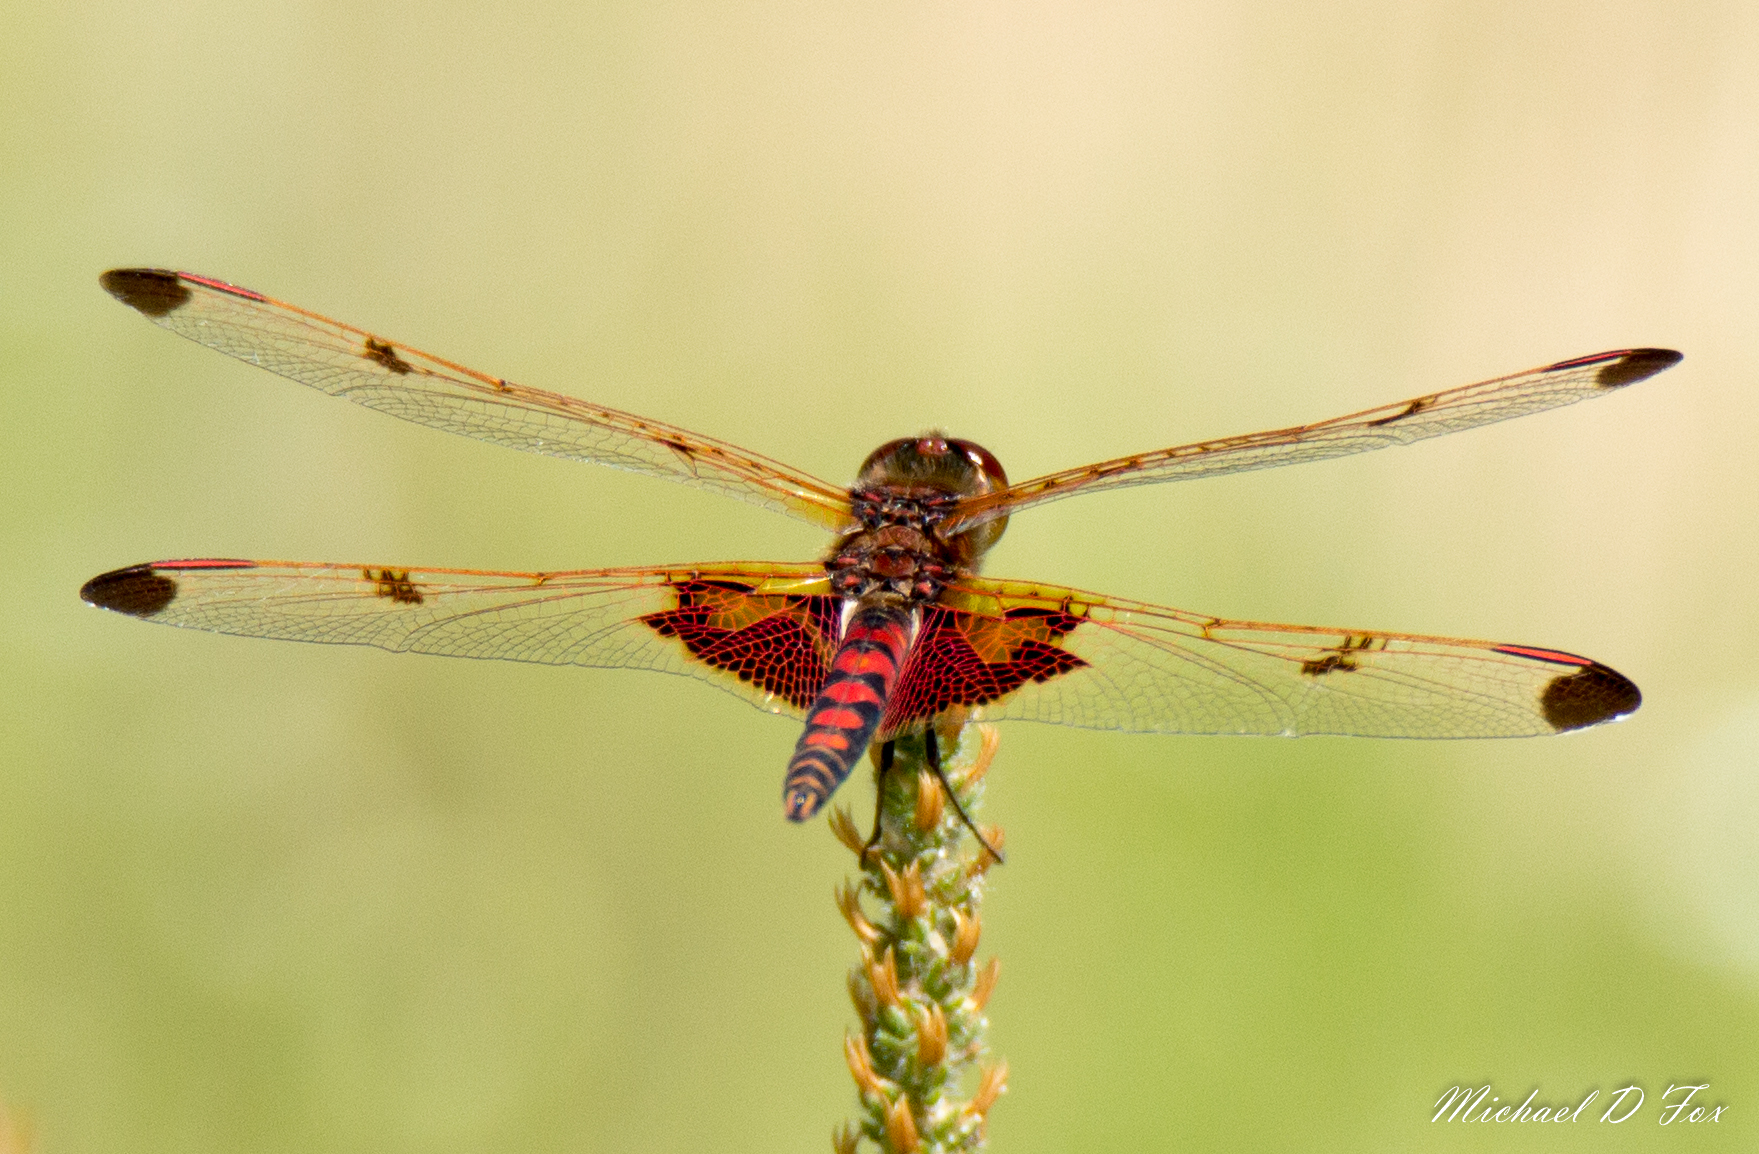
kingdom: Animalia
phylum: Arthropoda
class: Insecta
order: Odonata
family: Libellulidae
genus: Celithemis
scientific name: Celithemis elisa
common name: Calico pennant
